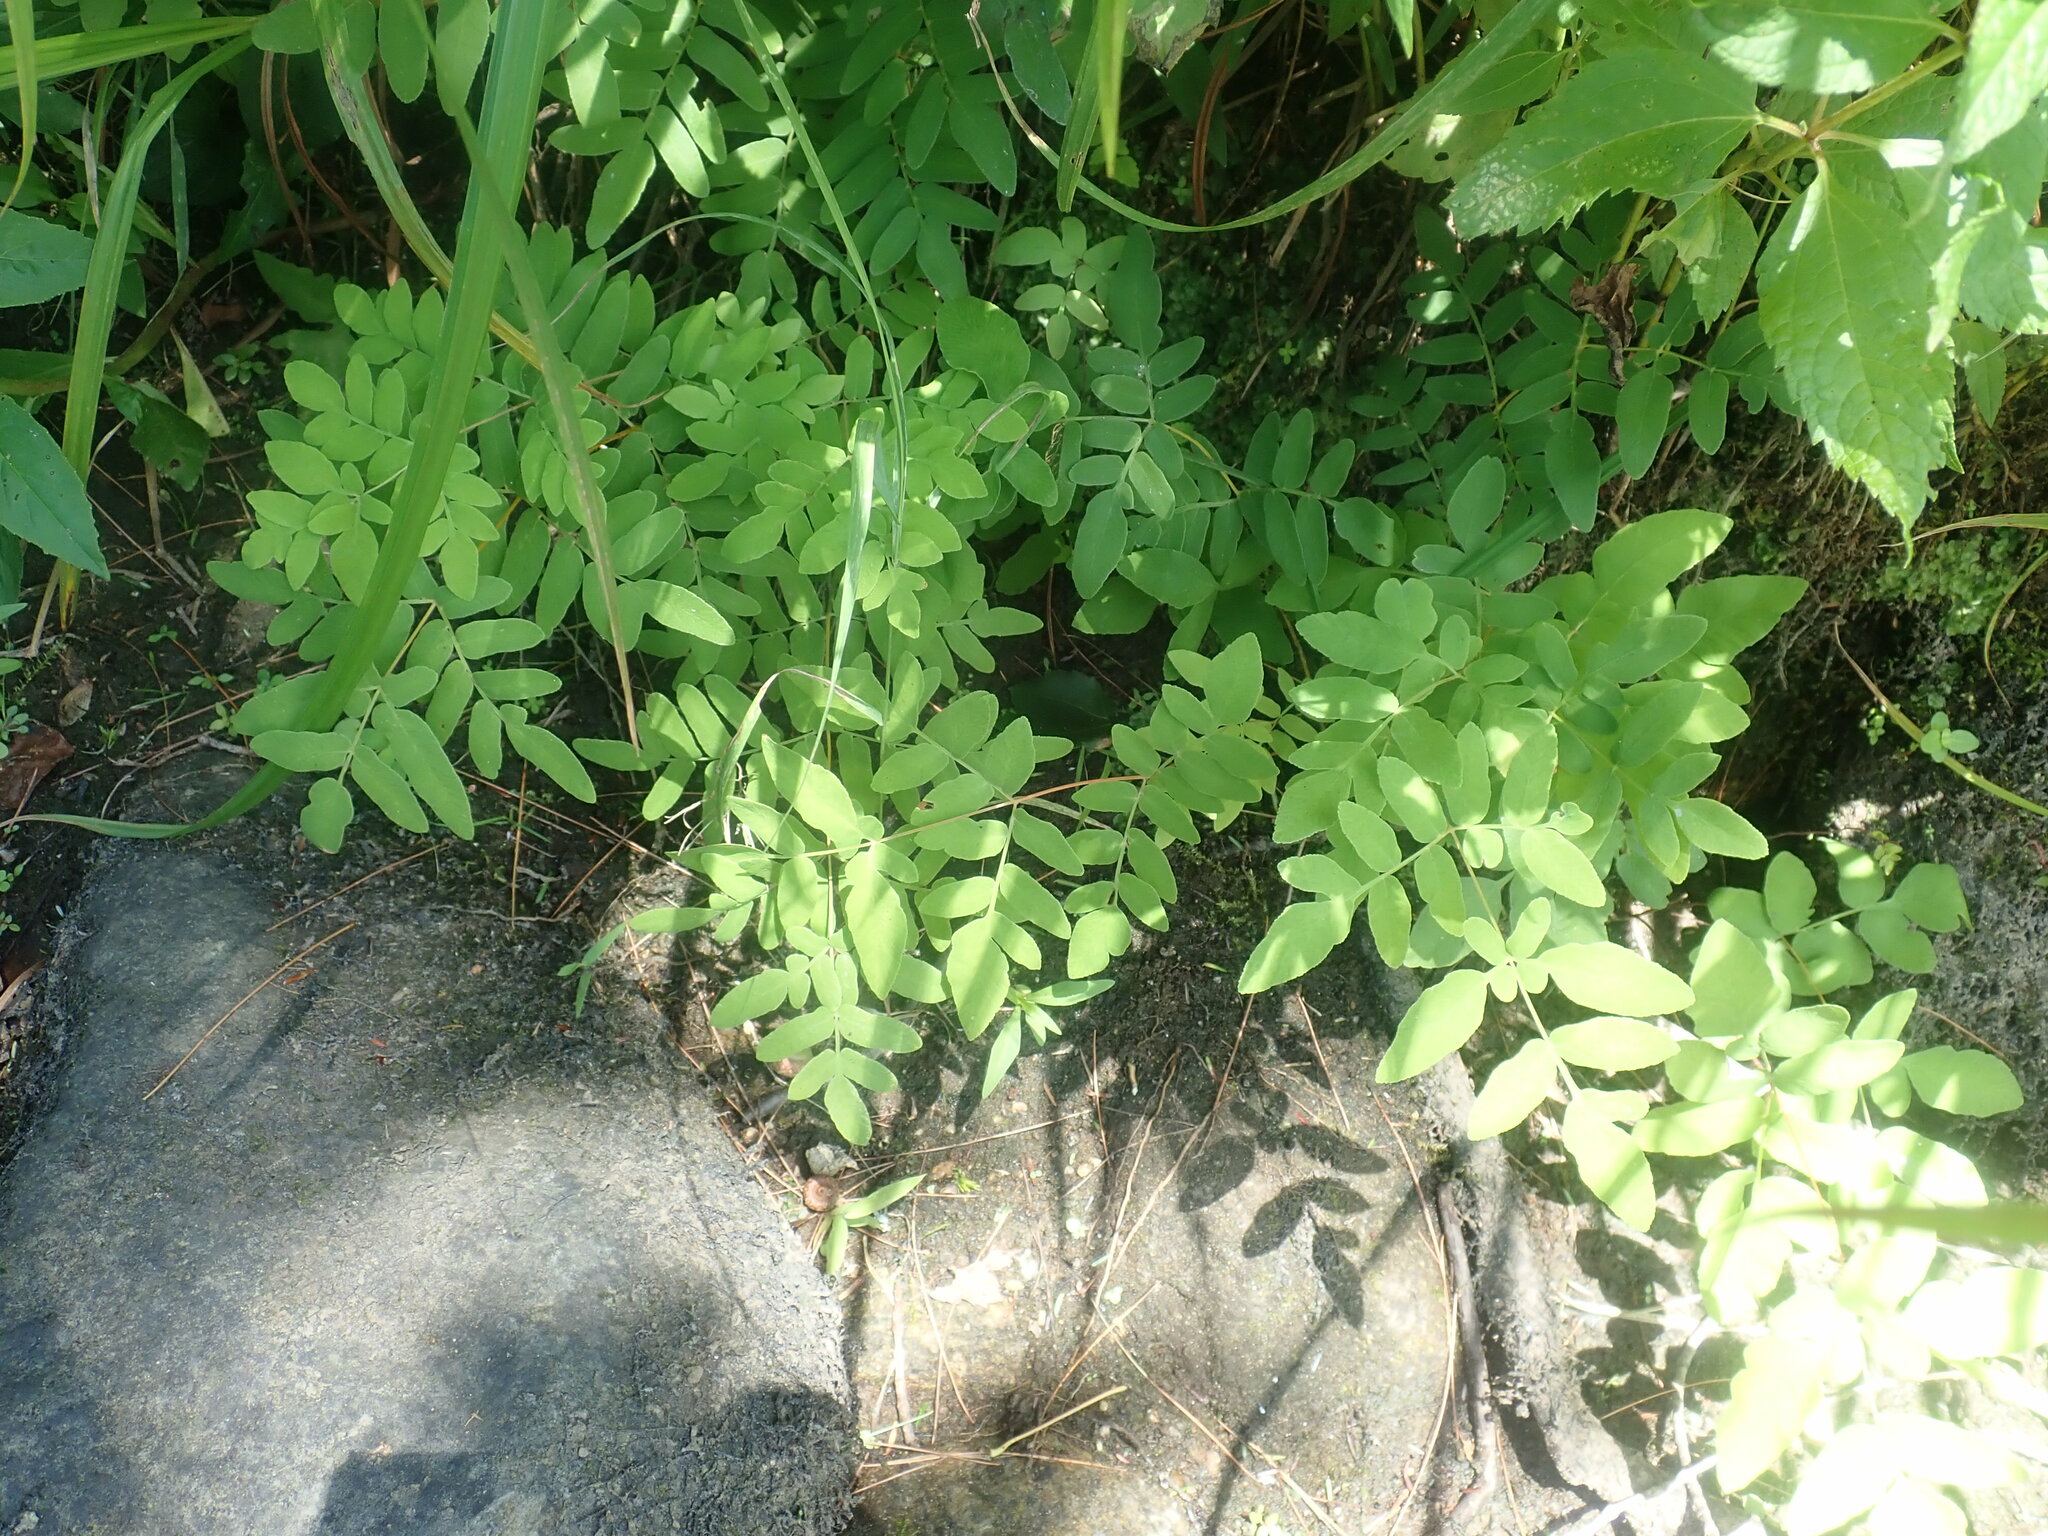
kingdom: Plantae
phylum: Tracheophyta
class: Polypodiopsida
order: Osmundales
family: Osmundaceae
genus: Osmunda
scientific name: Osmunda spectabilis
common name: American royal fern
